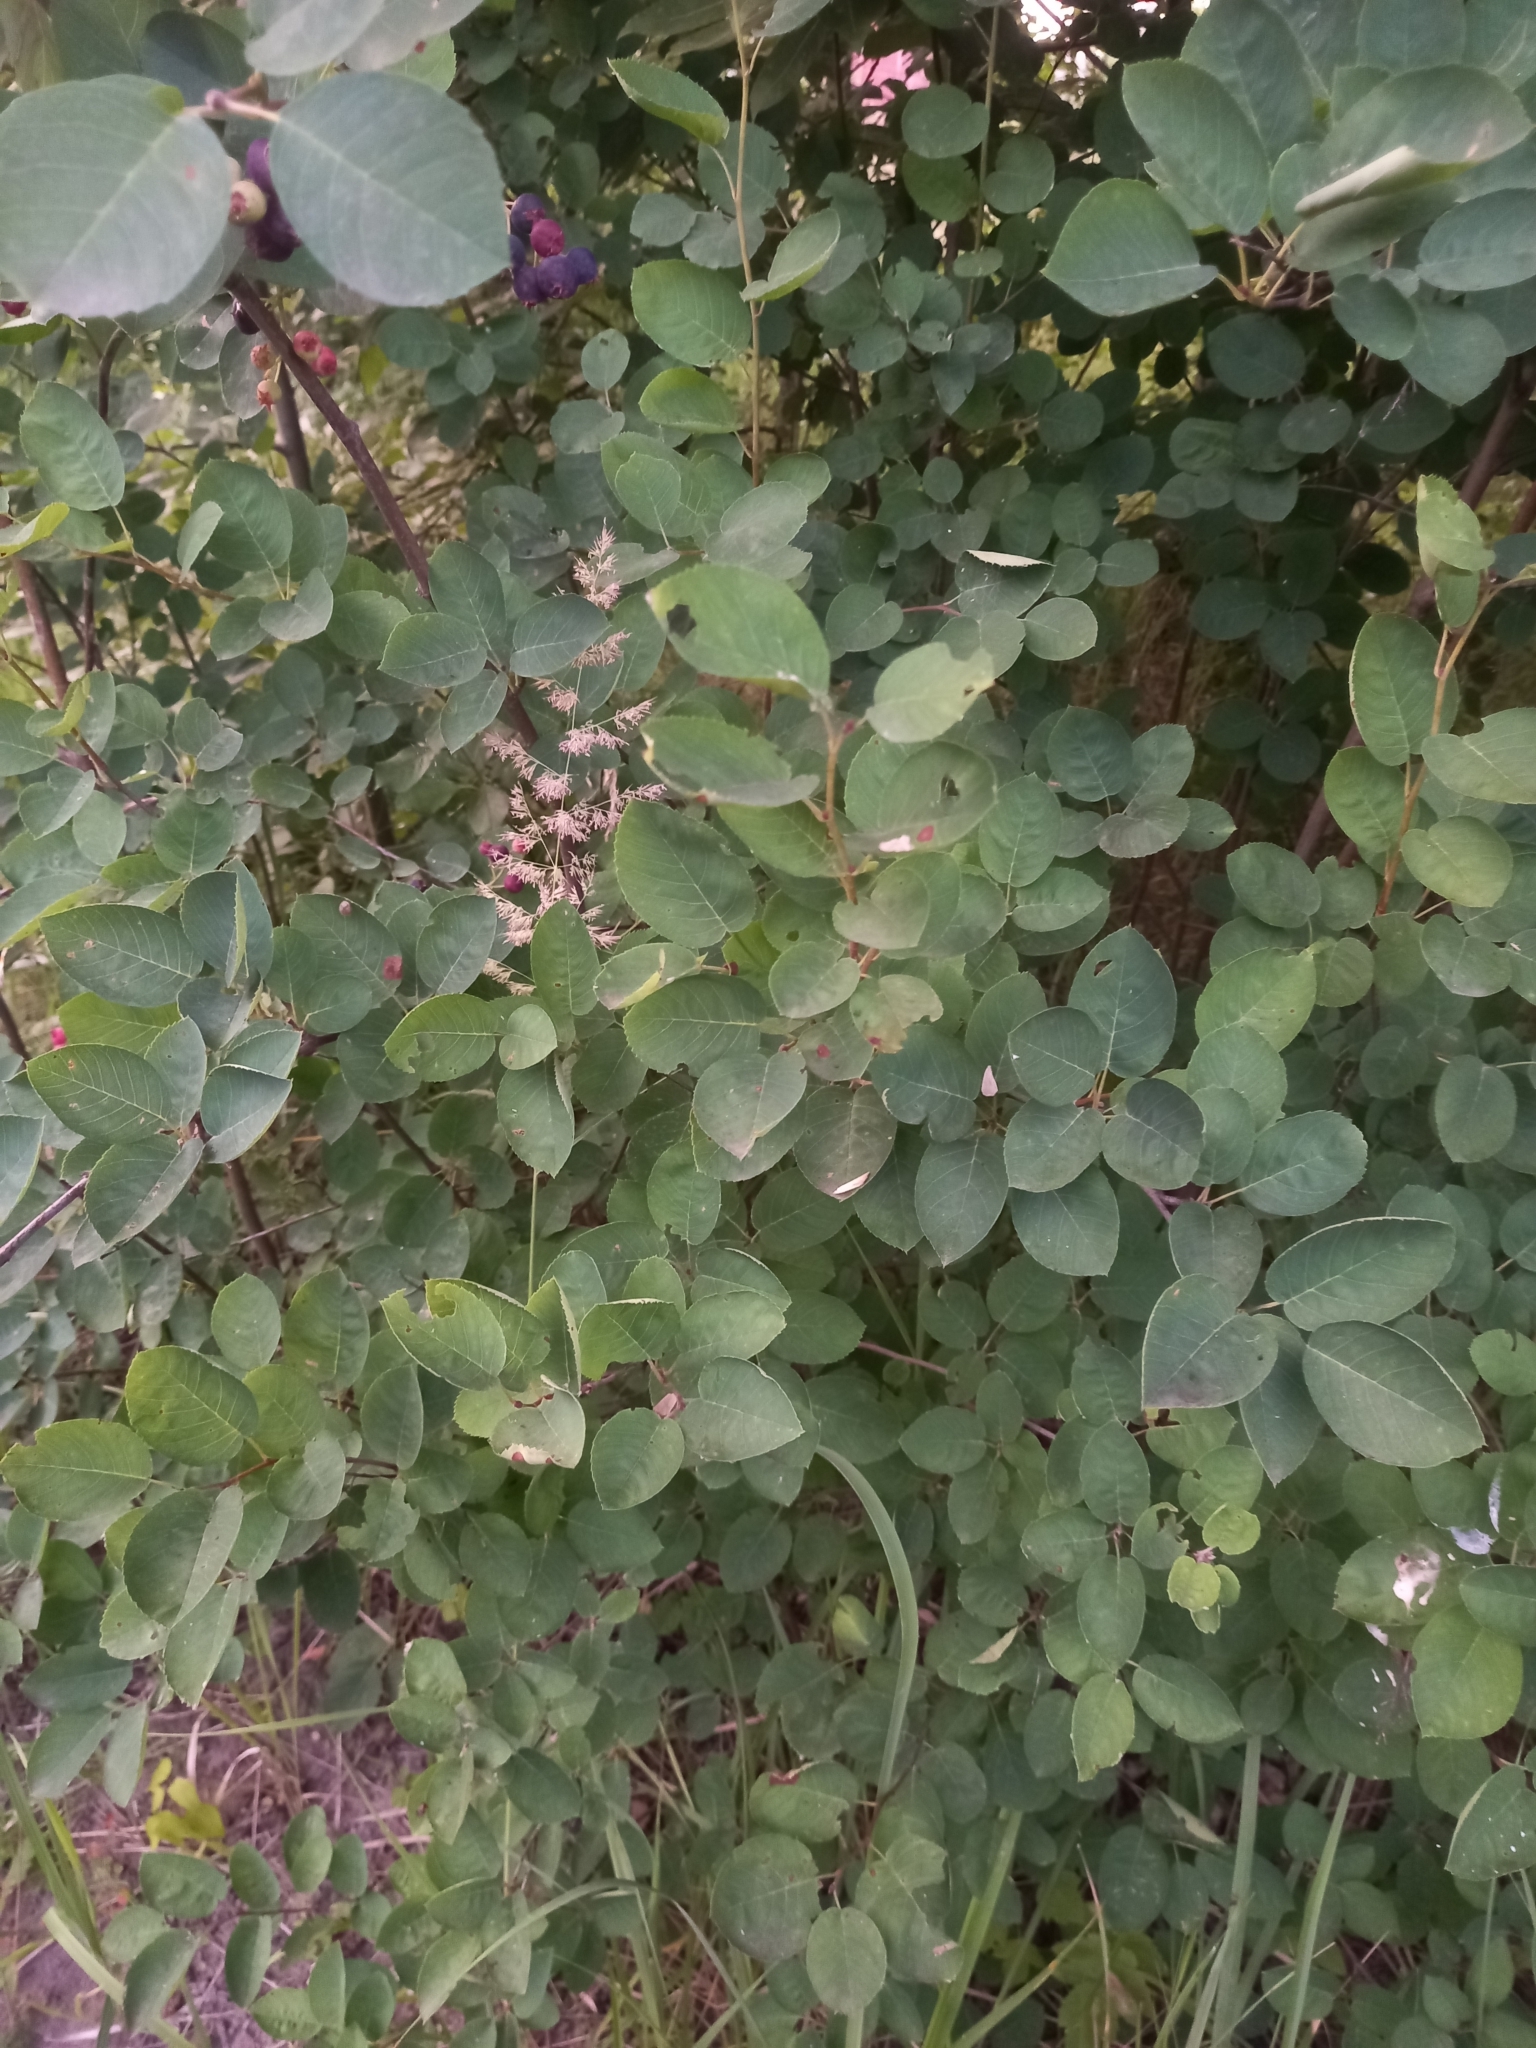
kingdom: Plantae
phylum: Tracheophyta
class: Magnoliopsida
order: Rosales
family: Rosaceae
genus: Amelanchier
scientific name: Amelanchier
